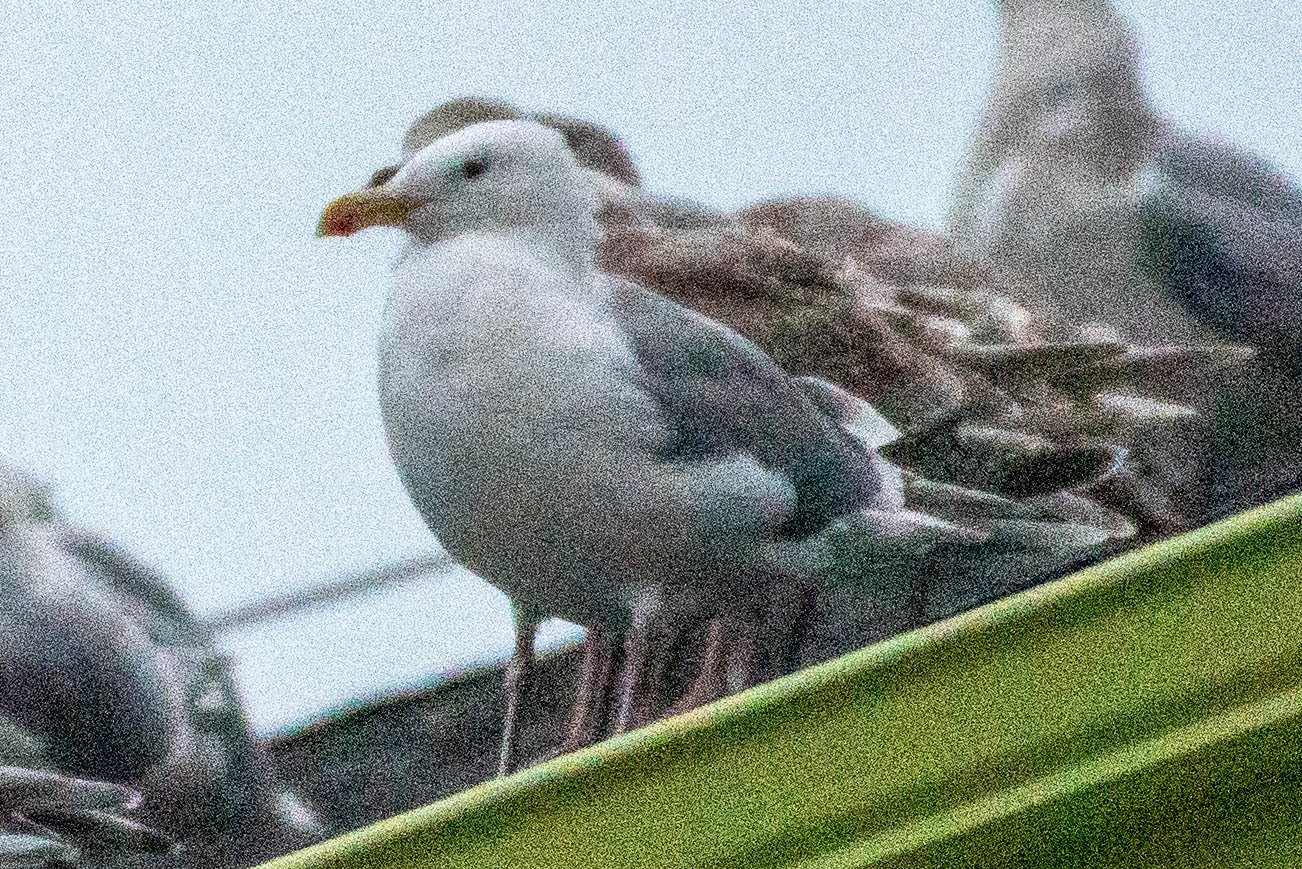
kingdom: Animalia
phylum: Chordata
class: Aves
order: Charadriiformes
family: Laridae
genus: Larus
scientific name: Larus
